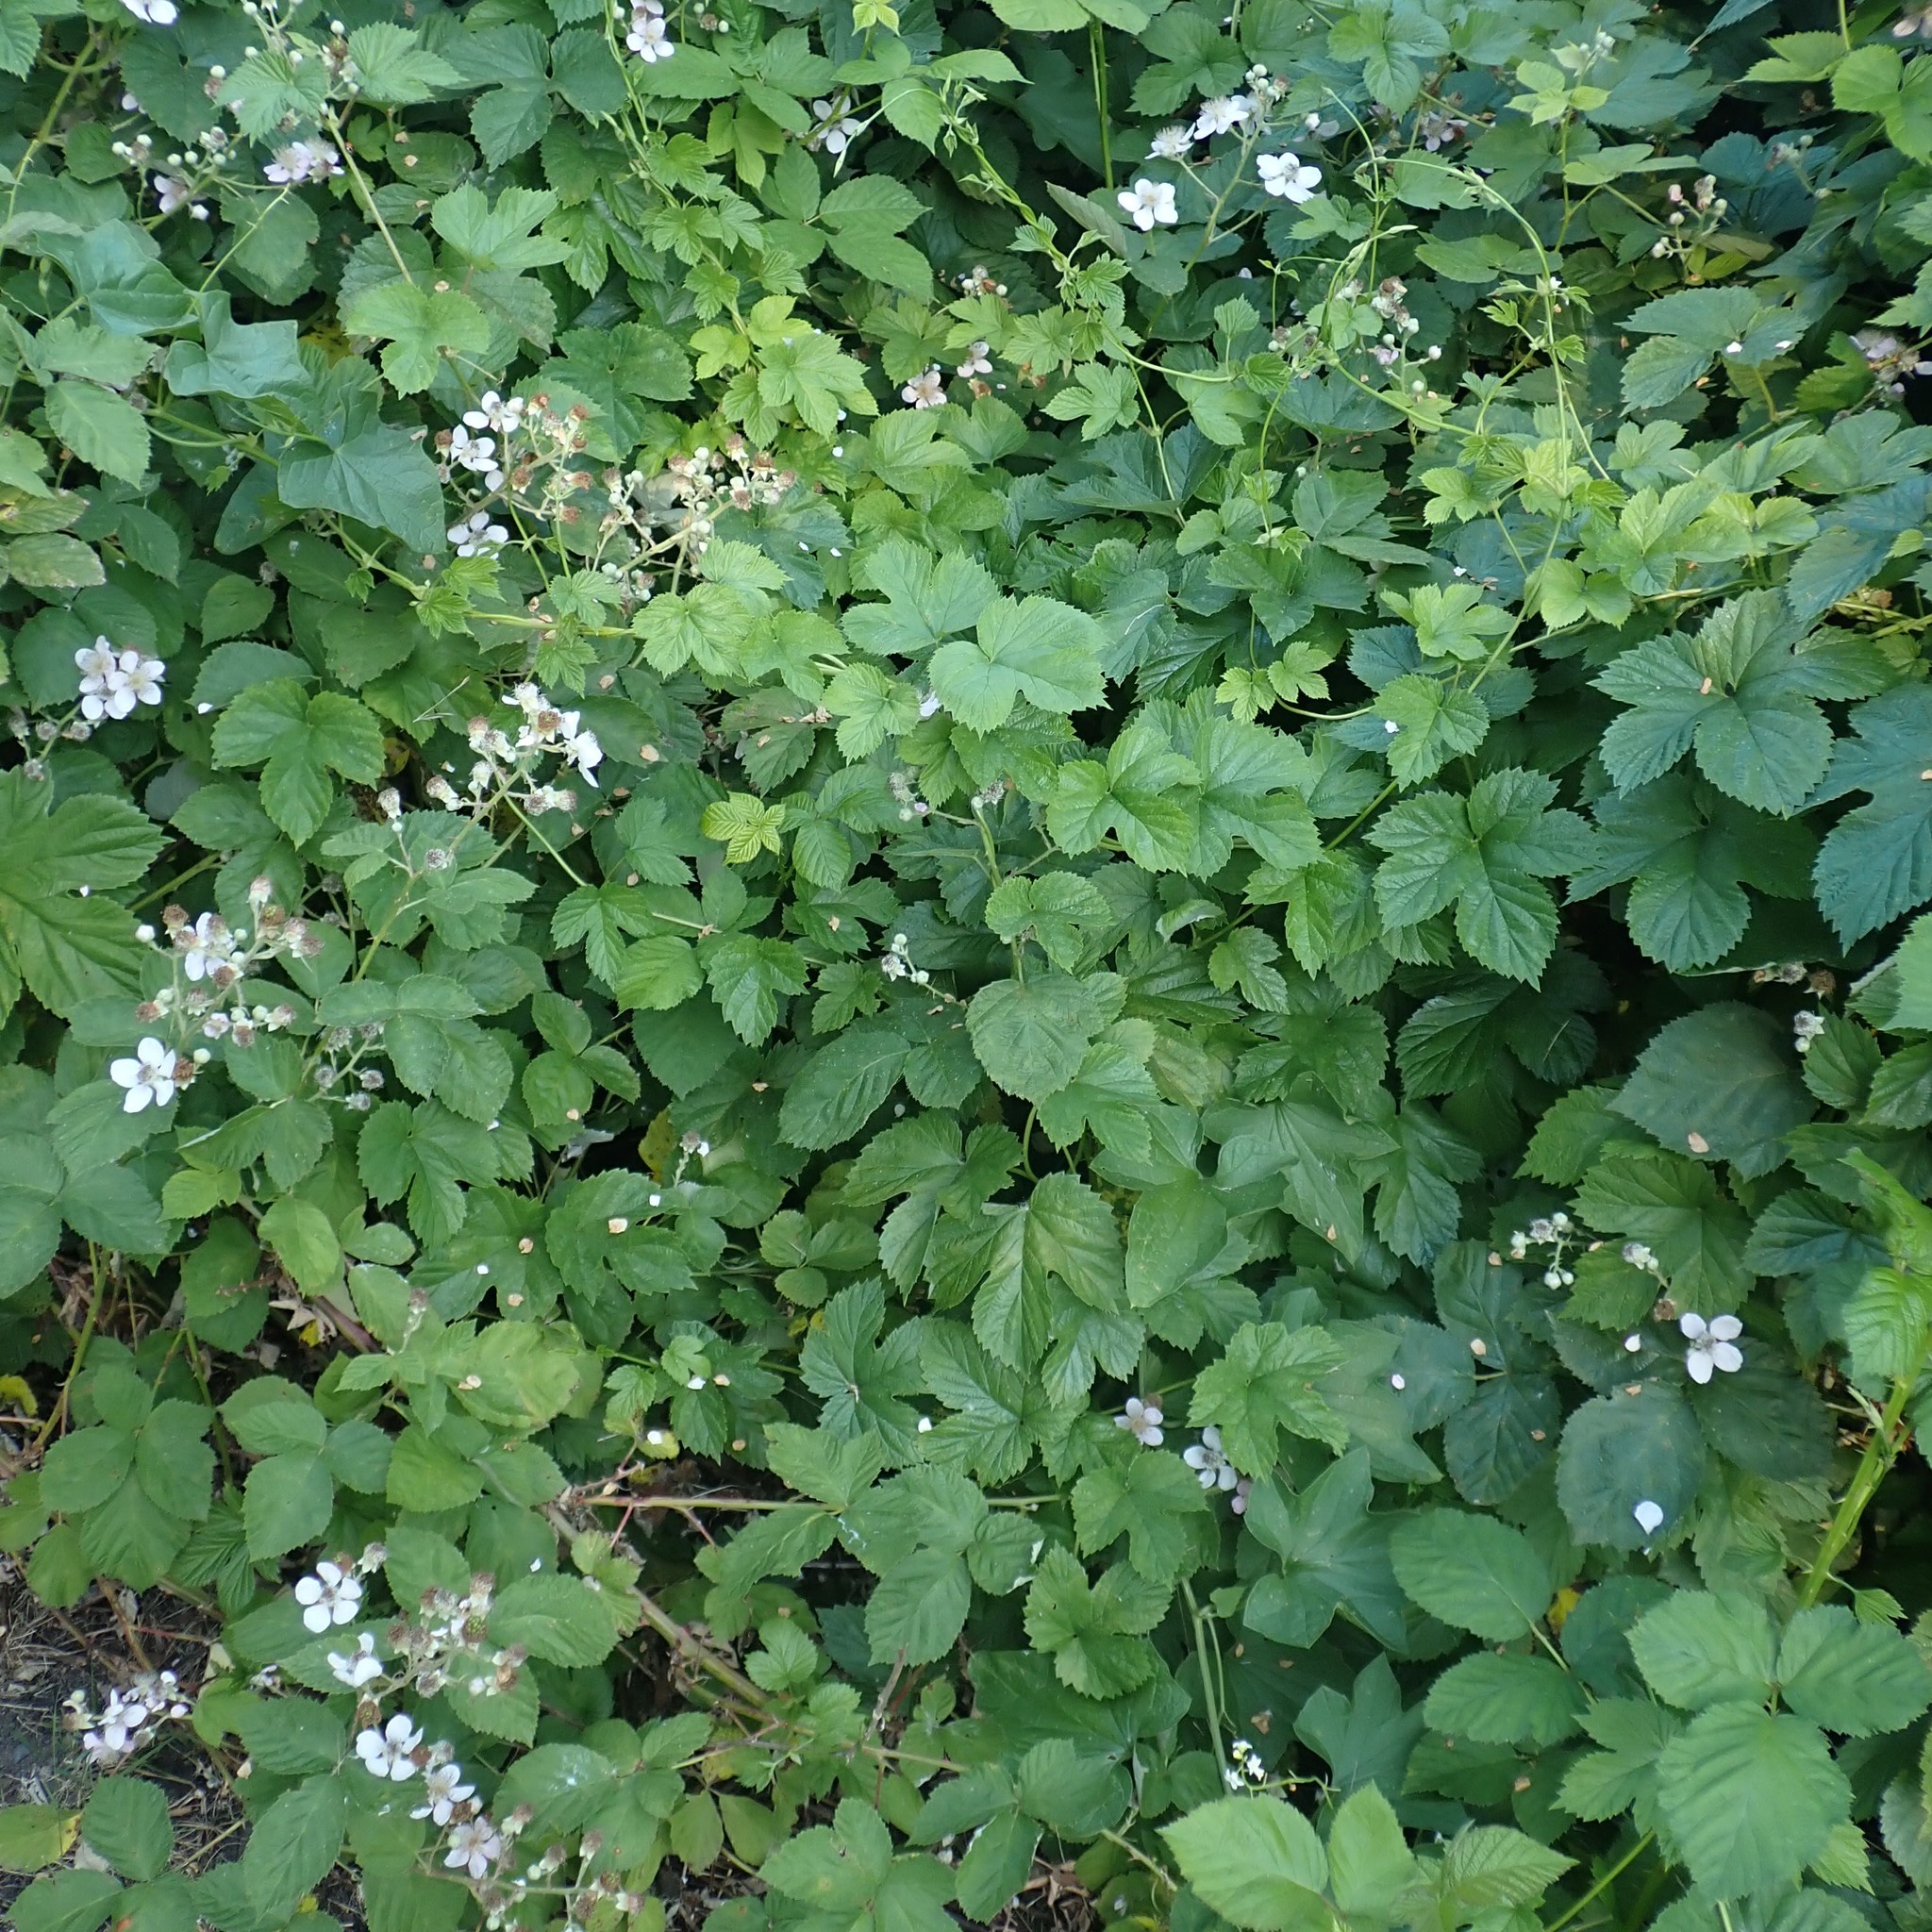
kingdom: Plantae
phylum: Tracheophyta
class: Magnoliopsida
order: Rosales
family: Cannabaceae
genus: Humulus
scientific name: Humulus lupulus
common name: Hop
